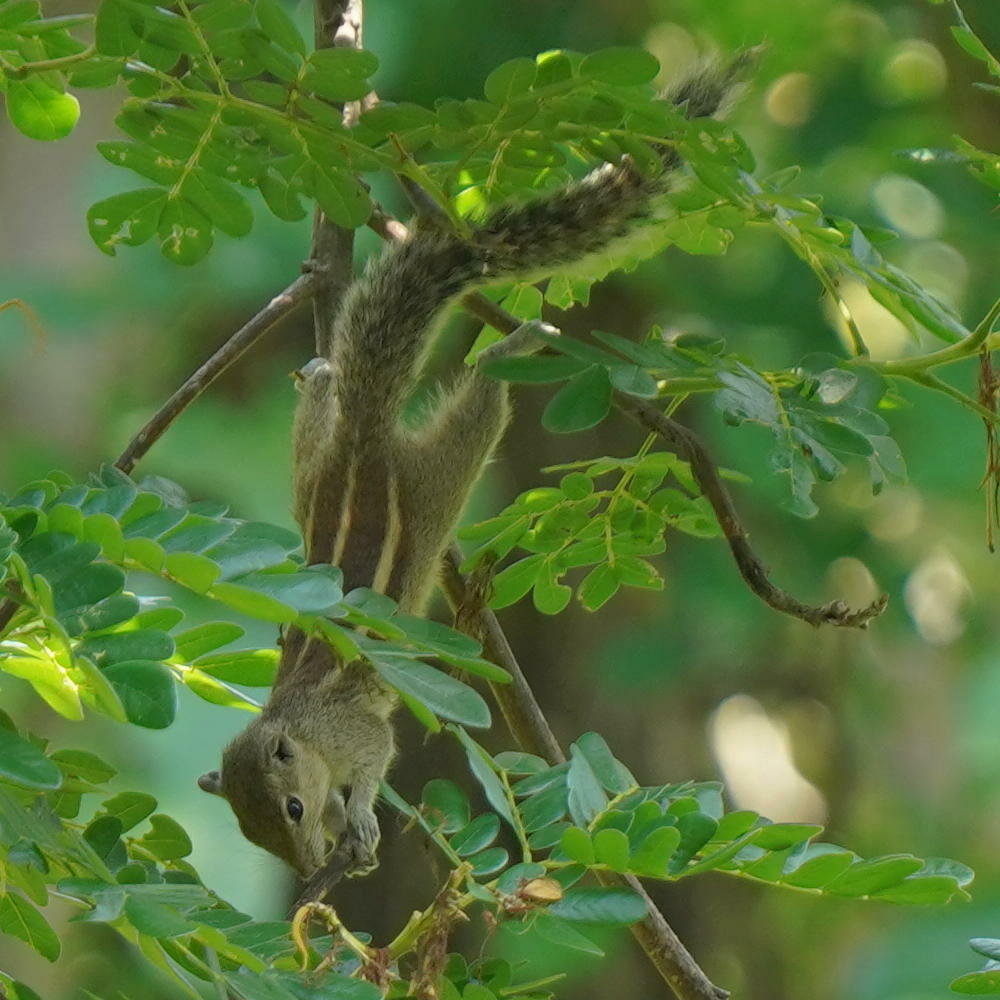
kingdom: Animalia
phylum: Chordata
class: Mammalia
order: Rodentia
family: Sciuridae
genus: Funambulus
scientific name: Funambulus palmarum
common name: Indian palm squirrel
